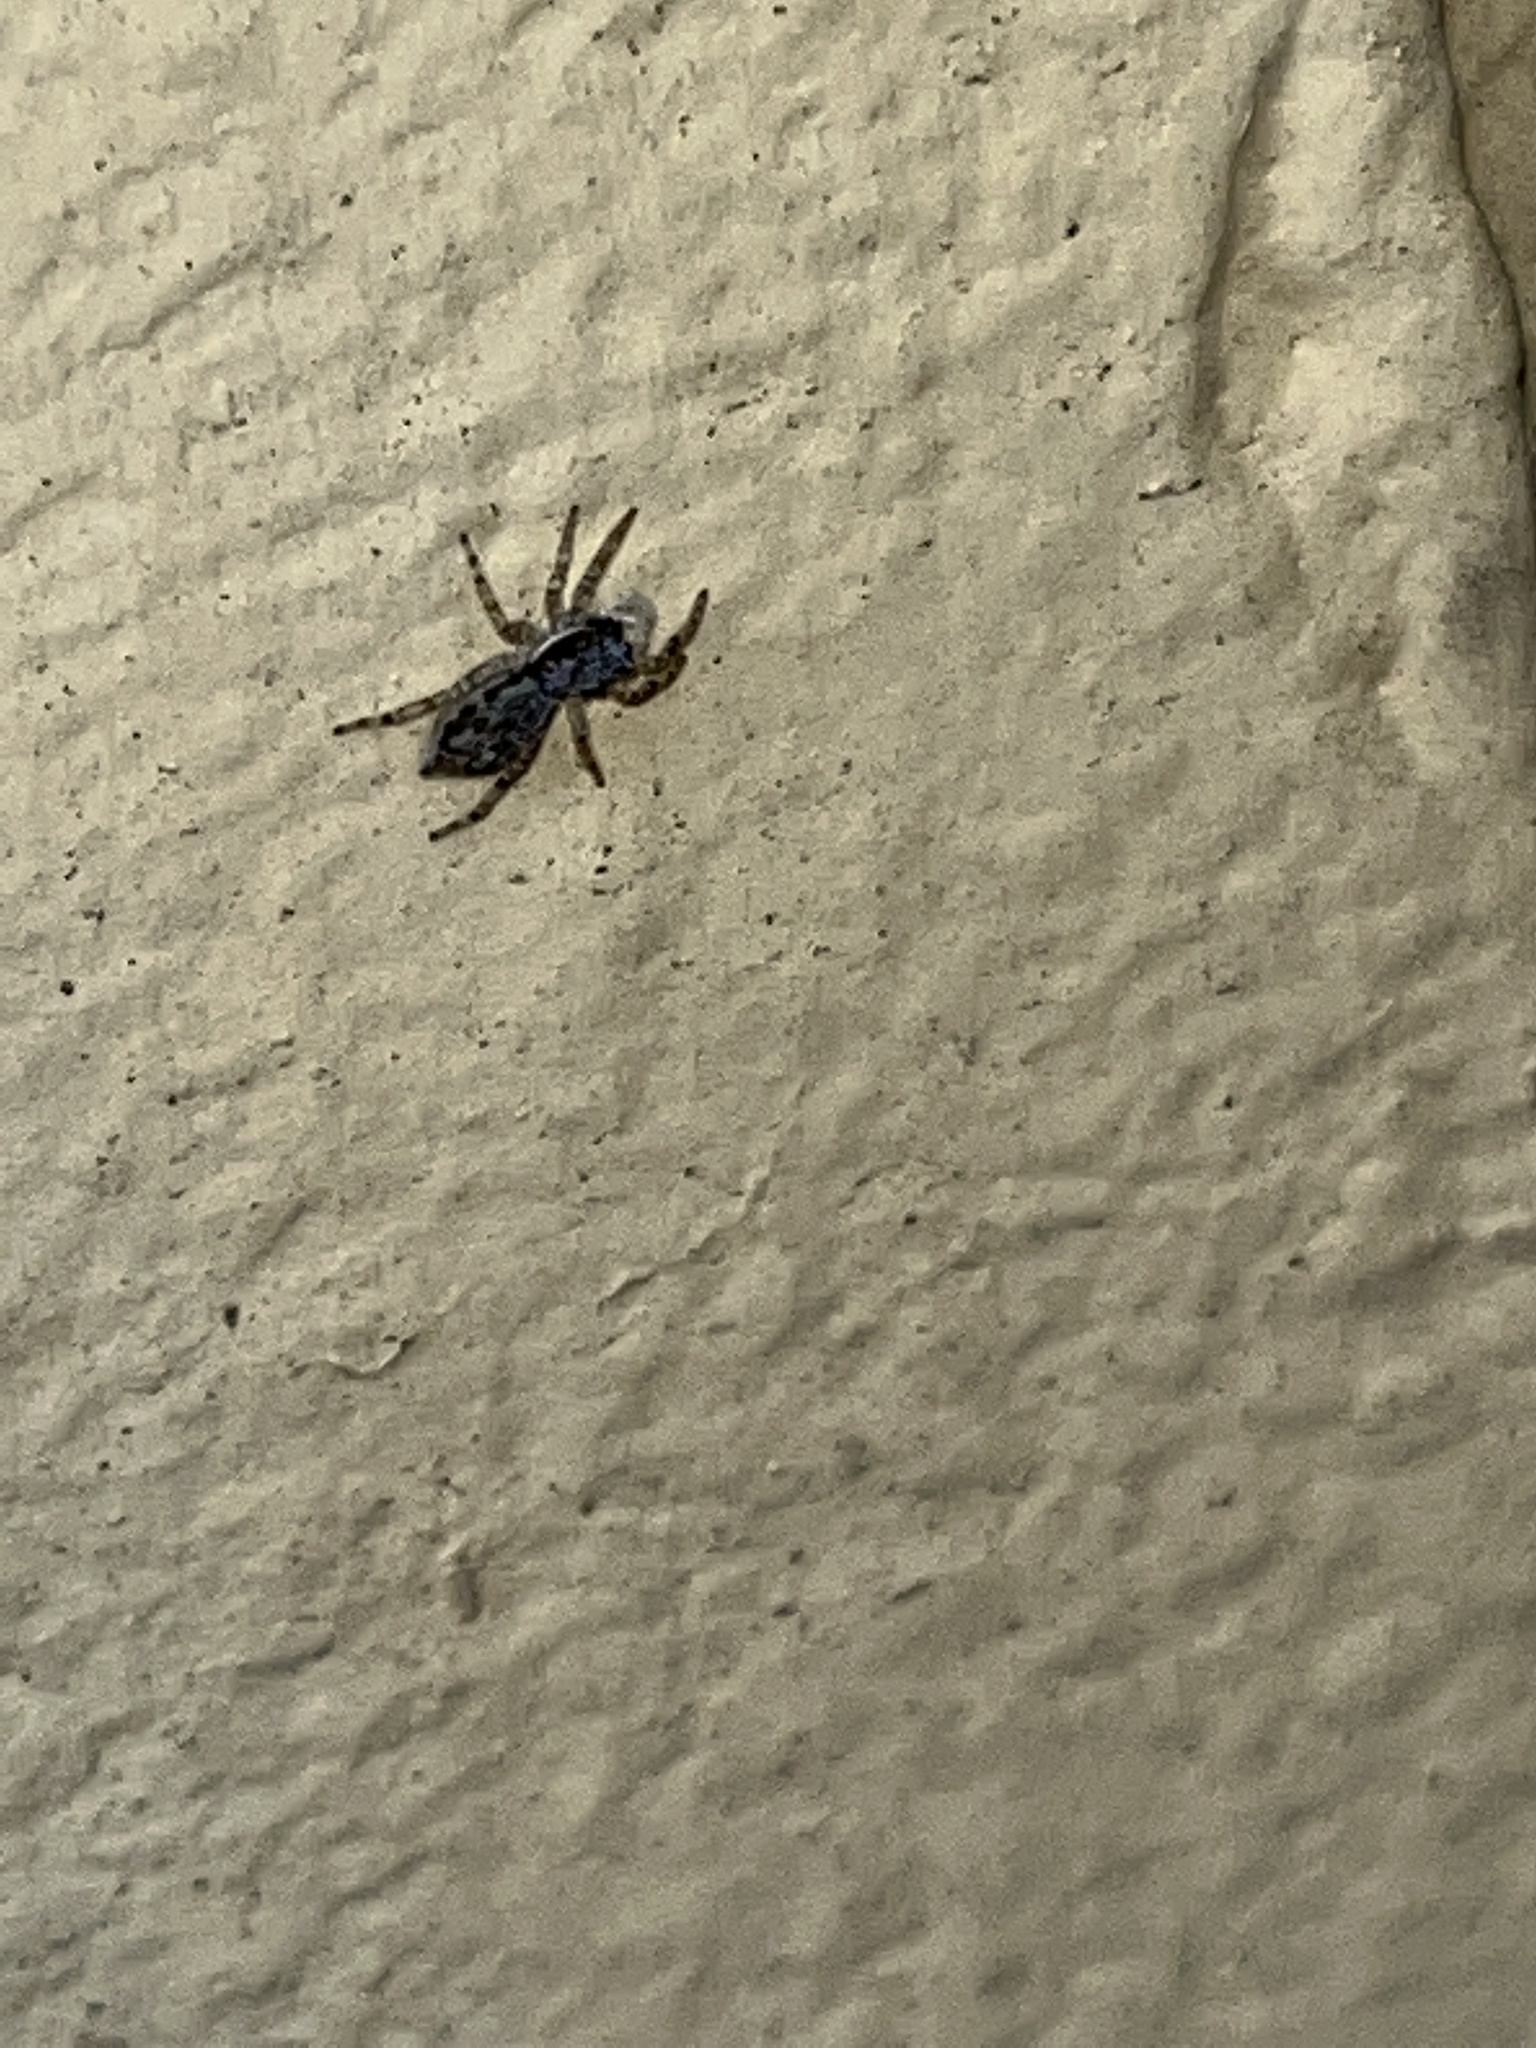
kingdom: Animalia
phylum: Arthropoda
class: Arachnida
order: Araneae
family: Salticidae
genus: Menemerus
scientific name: Menemerus bivittatus
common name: Gray wall jumper
